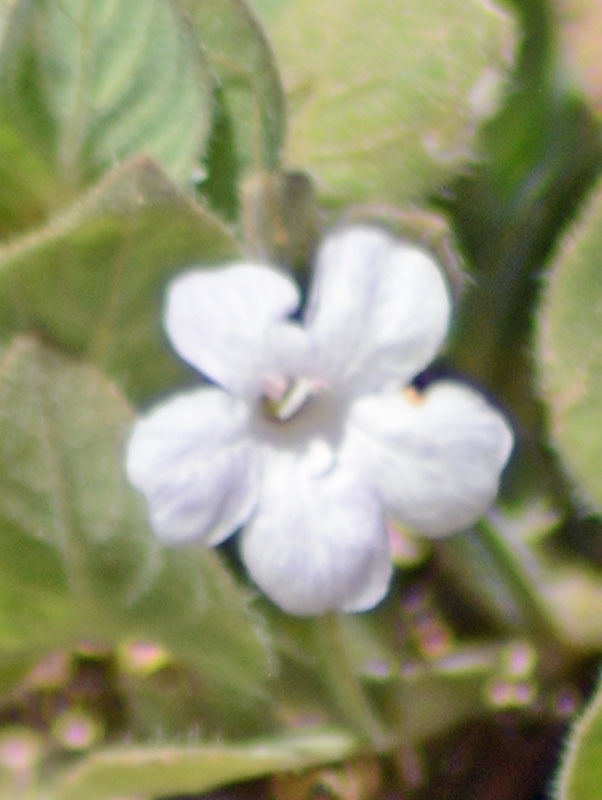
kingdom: Plantae
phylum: Tracheophyta
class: Magnoliopsida
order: Lamiales
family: Acanthaceae
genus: Ruellia
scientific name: Ruellia blechum
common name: Browne's blechum
